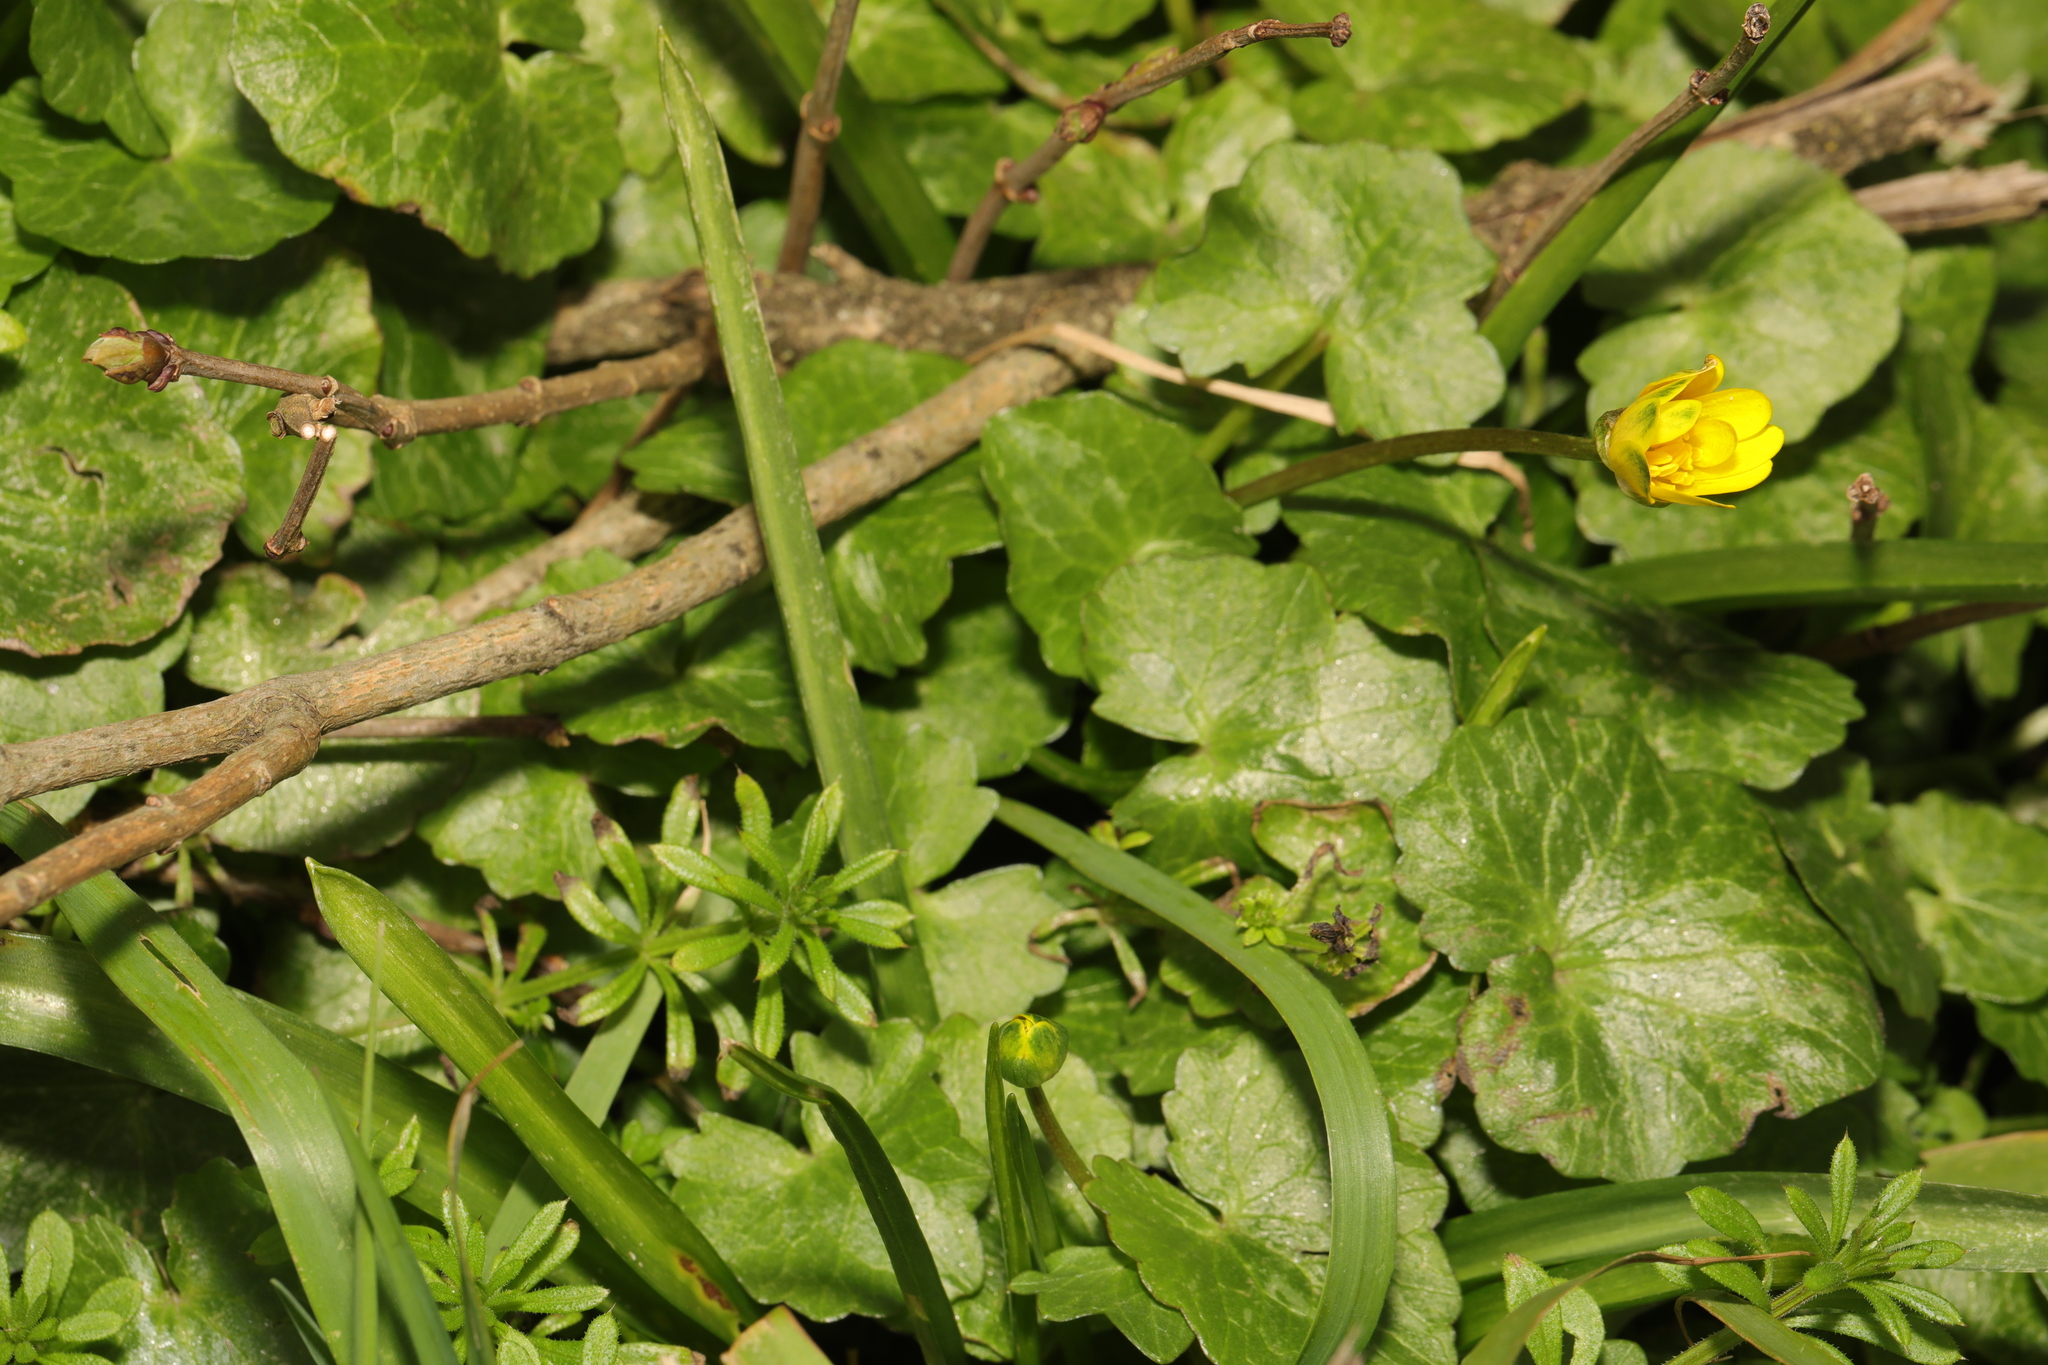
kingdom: Plantae
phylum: Tracheophyta
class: Magnoliopsida
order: Ranunculales
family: Ranunculaceae
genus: Ficaria
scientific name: Ficaria verna
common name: Lesser celandine
